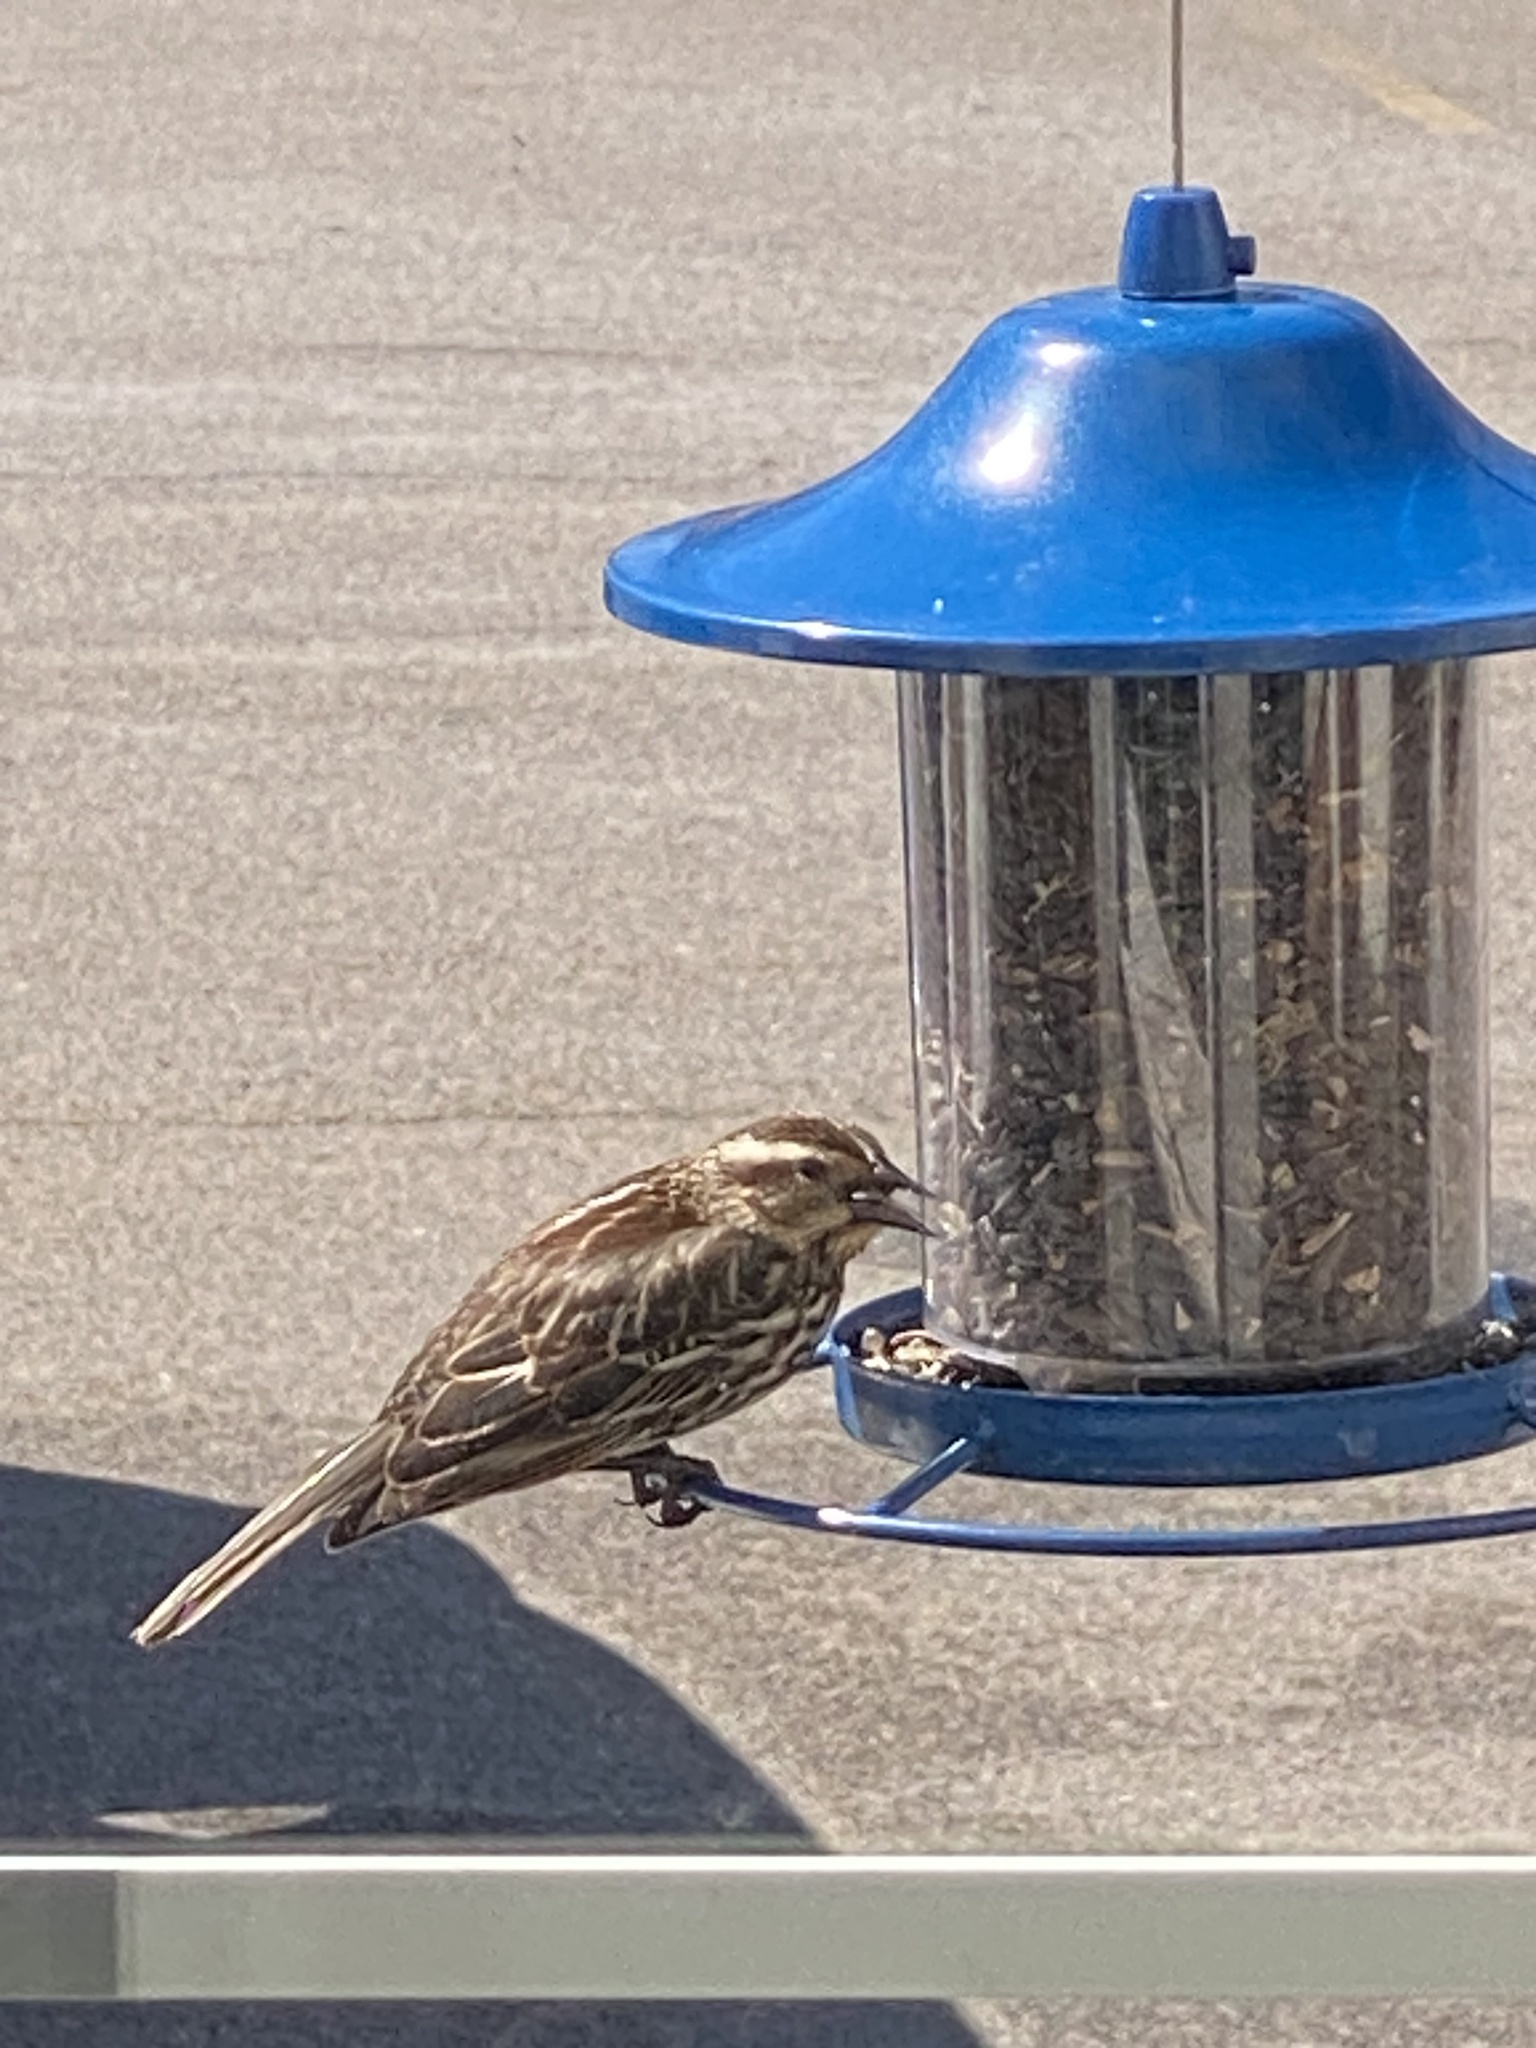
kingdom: Animalia
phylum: Chordata
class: Aves
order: Passeriformes
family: Icteridae
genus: Agelaius
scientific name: Agelaius phoeniceus
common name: Red-winged blackbird
